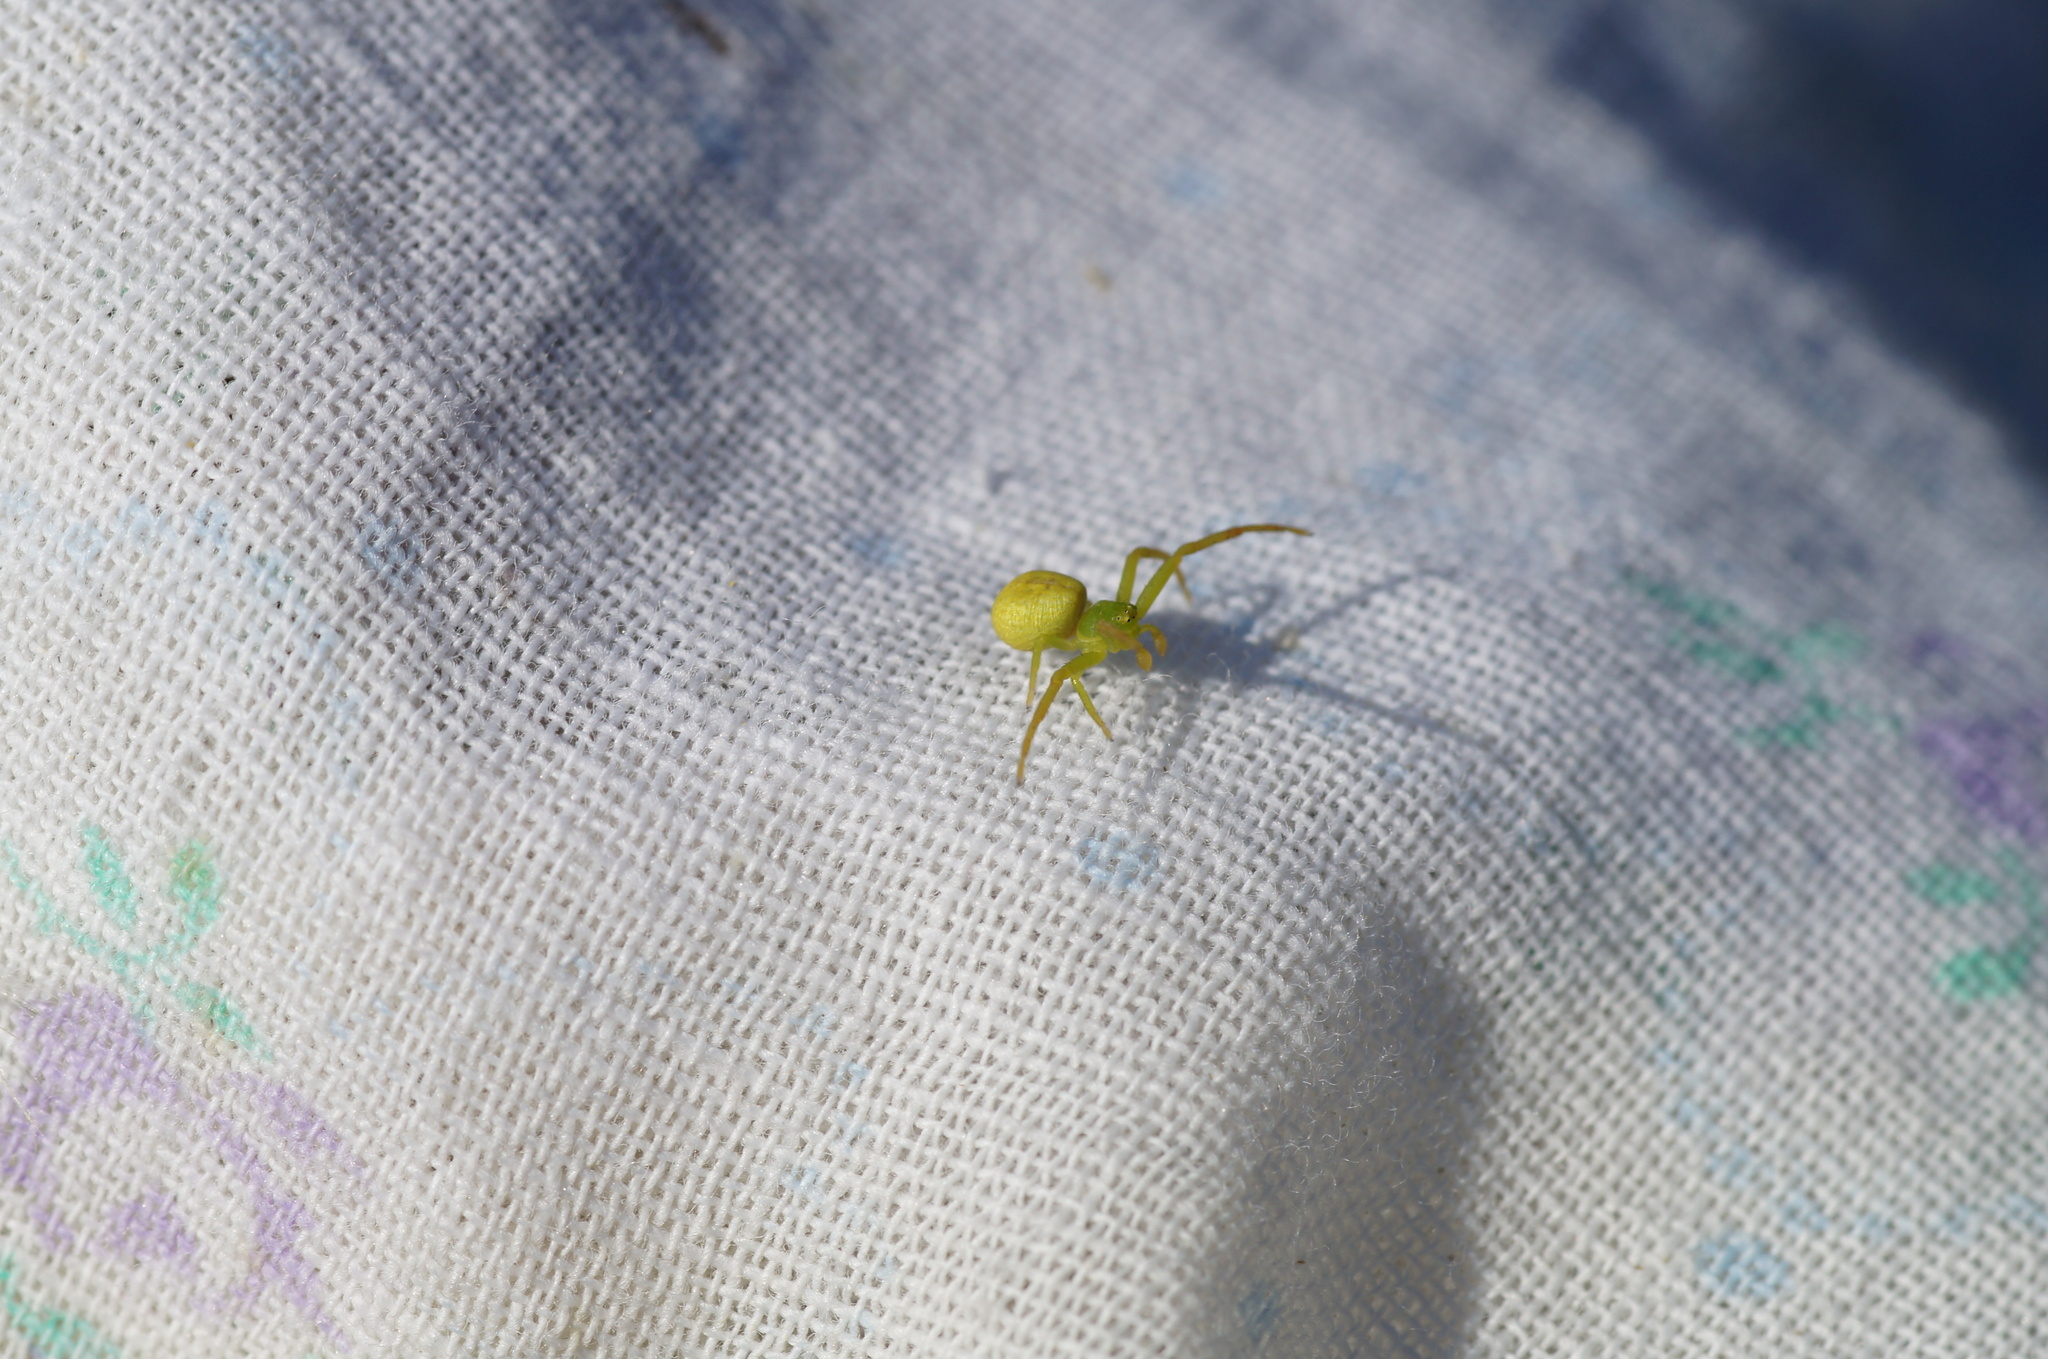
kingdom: Animalia
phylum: Arthropoda
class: Arachnida
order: Araneae
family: Thomisidae
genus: Ebrechtella
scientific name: Ebrechtella tricuspidata
